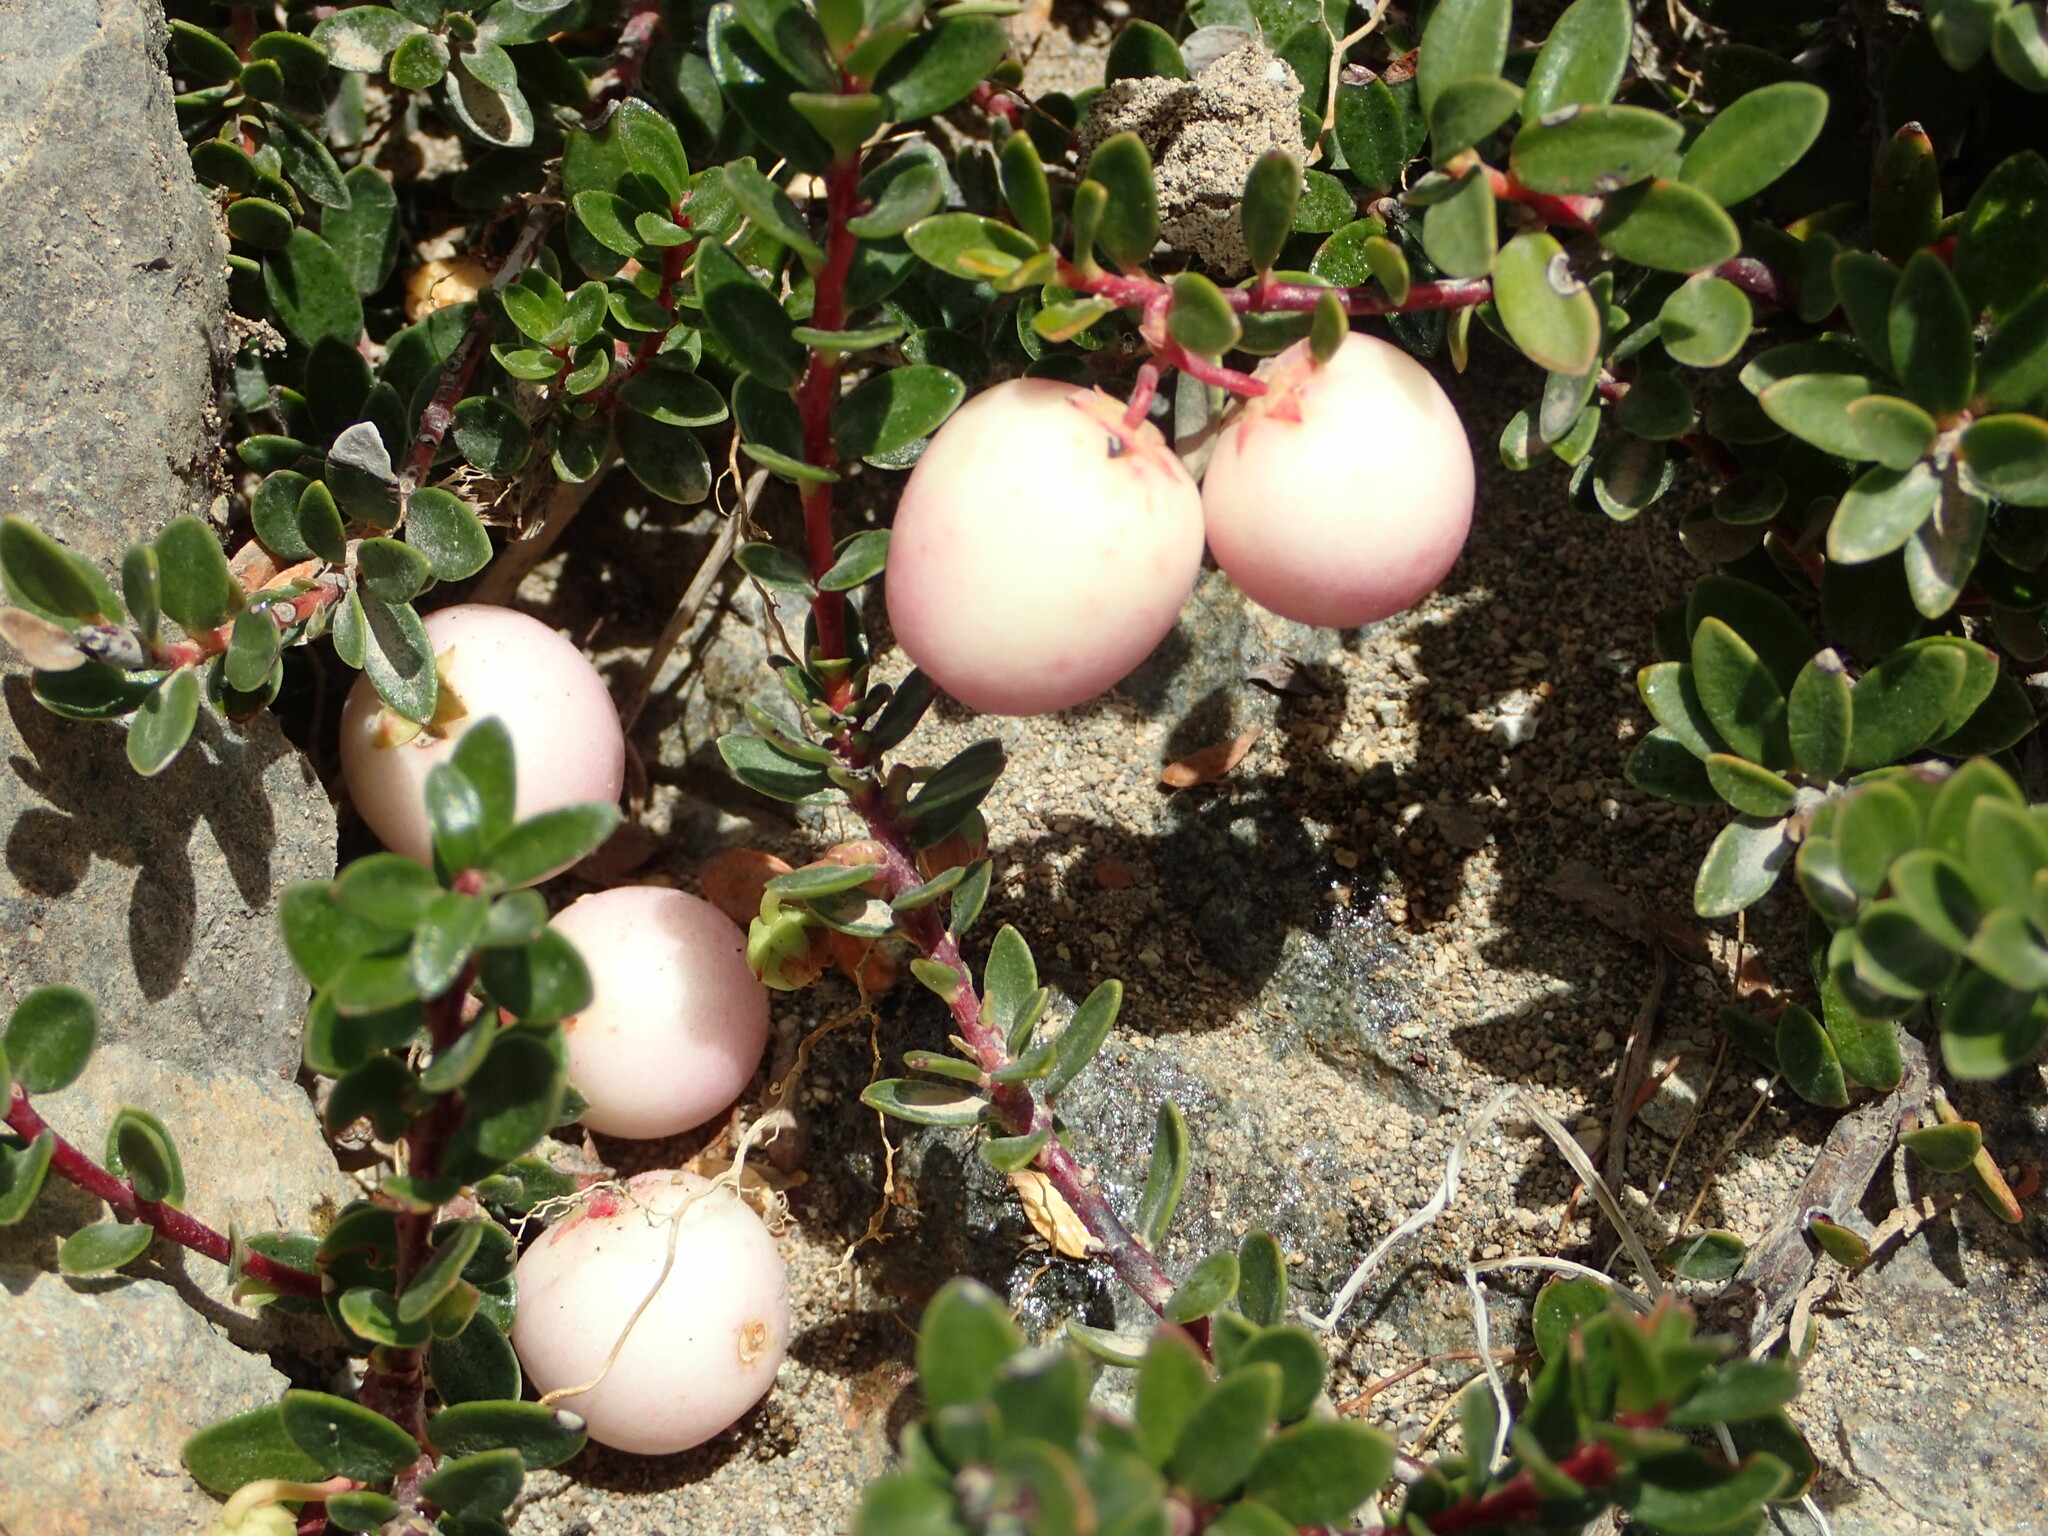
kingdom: Plantae
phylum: Tracheophyta
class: Magnoliopsida
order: Ericales
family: Ericaceae
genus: Gaultheria
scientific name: Gaultheria pumila
